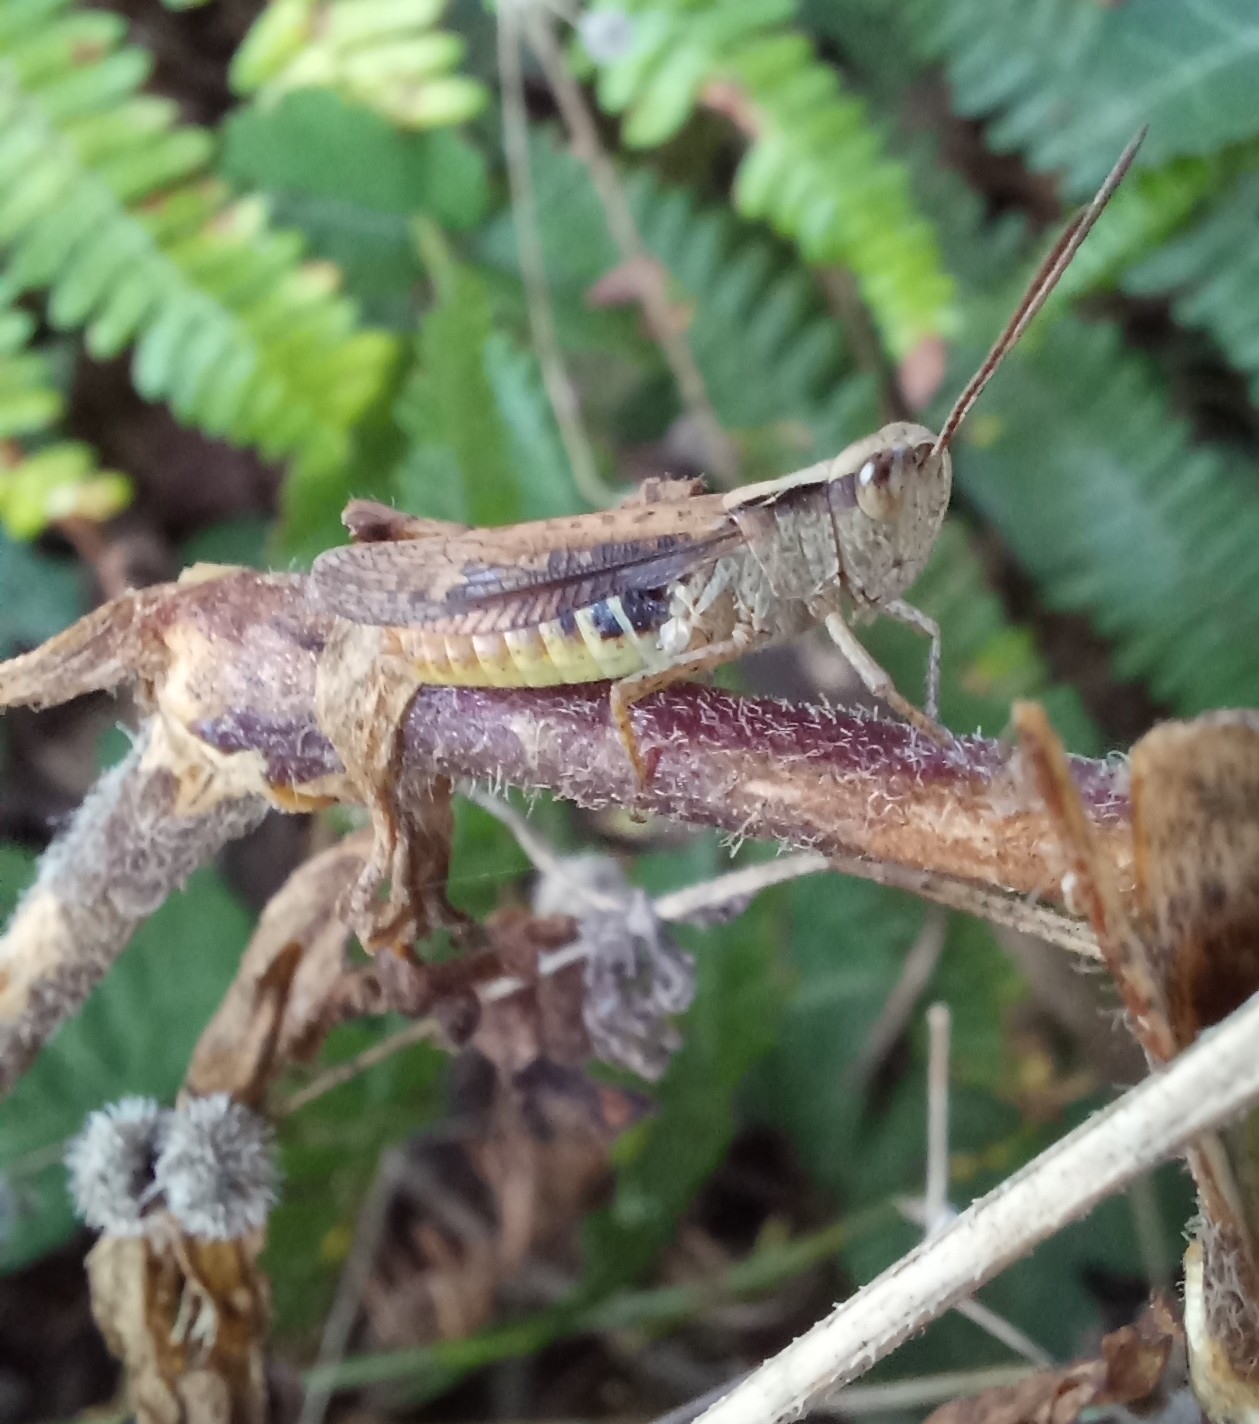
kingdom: Animalia
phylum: Arthropoda
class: Insecta
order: Orthoptera
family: Acrididae
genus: Chorthippus
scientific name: Chorthippus vagans
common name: Heath grasshopper
